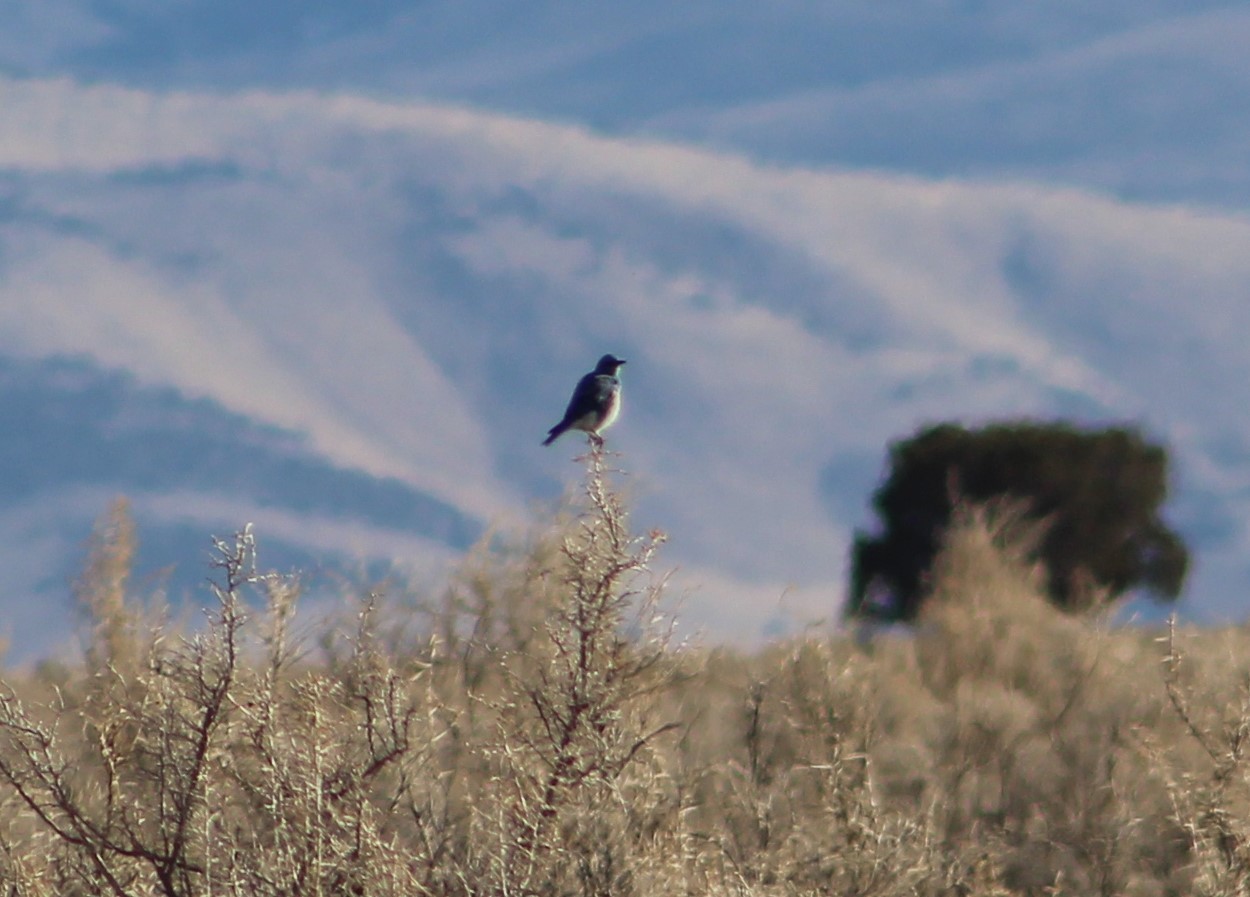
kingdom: Animalia
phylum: Chordata
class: Aves
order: Passeriformes
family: Turdidae
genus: Sialia
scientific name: Sialia currucoides
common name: Mountain bluebird
